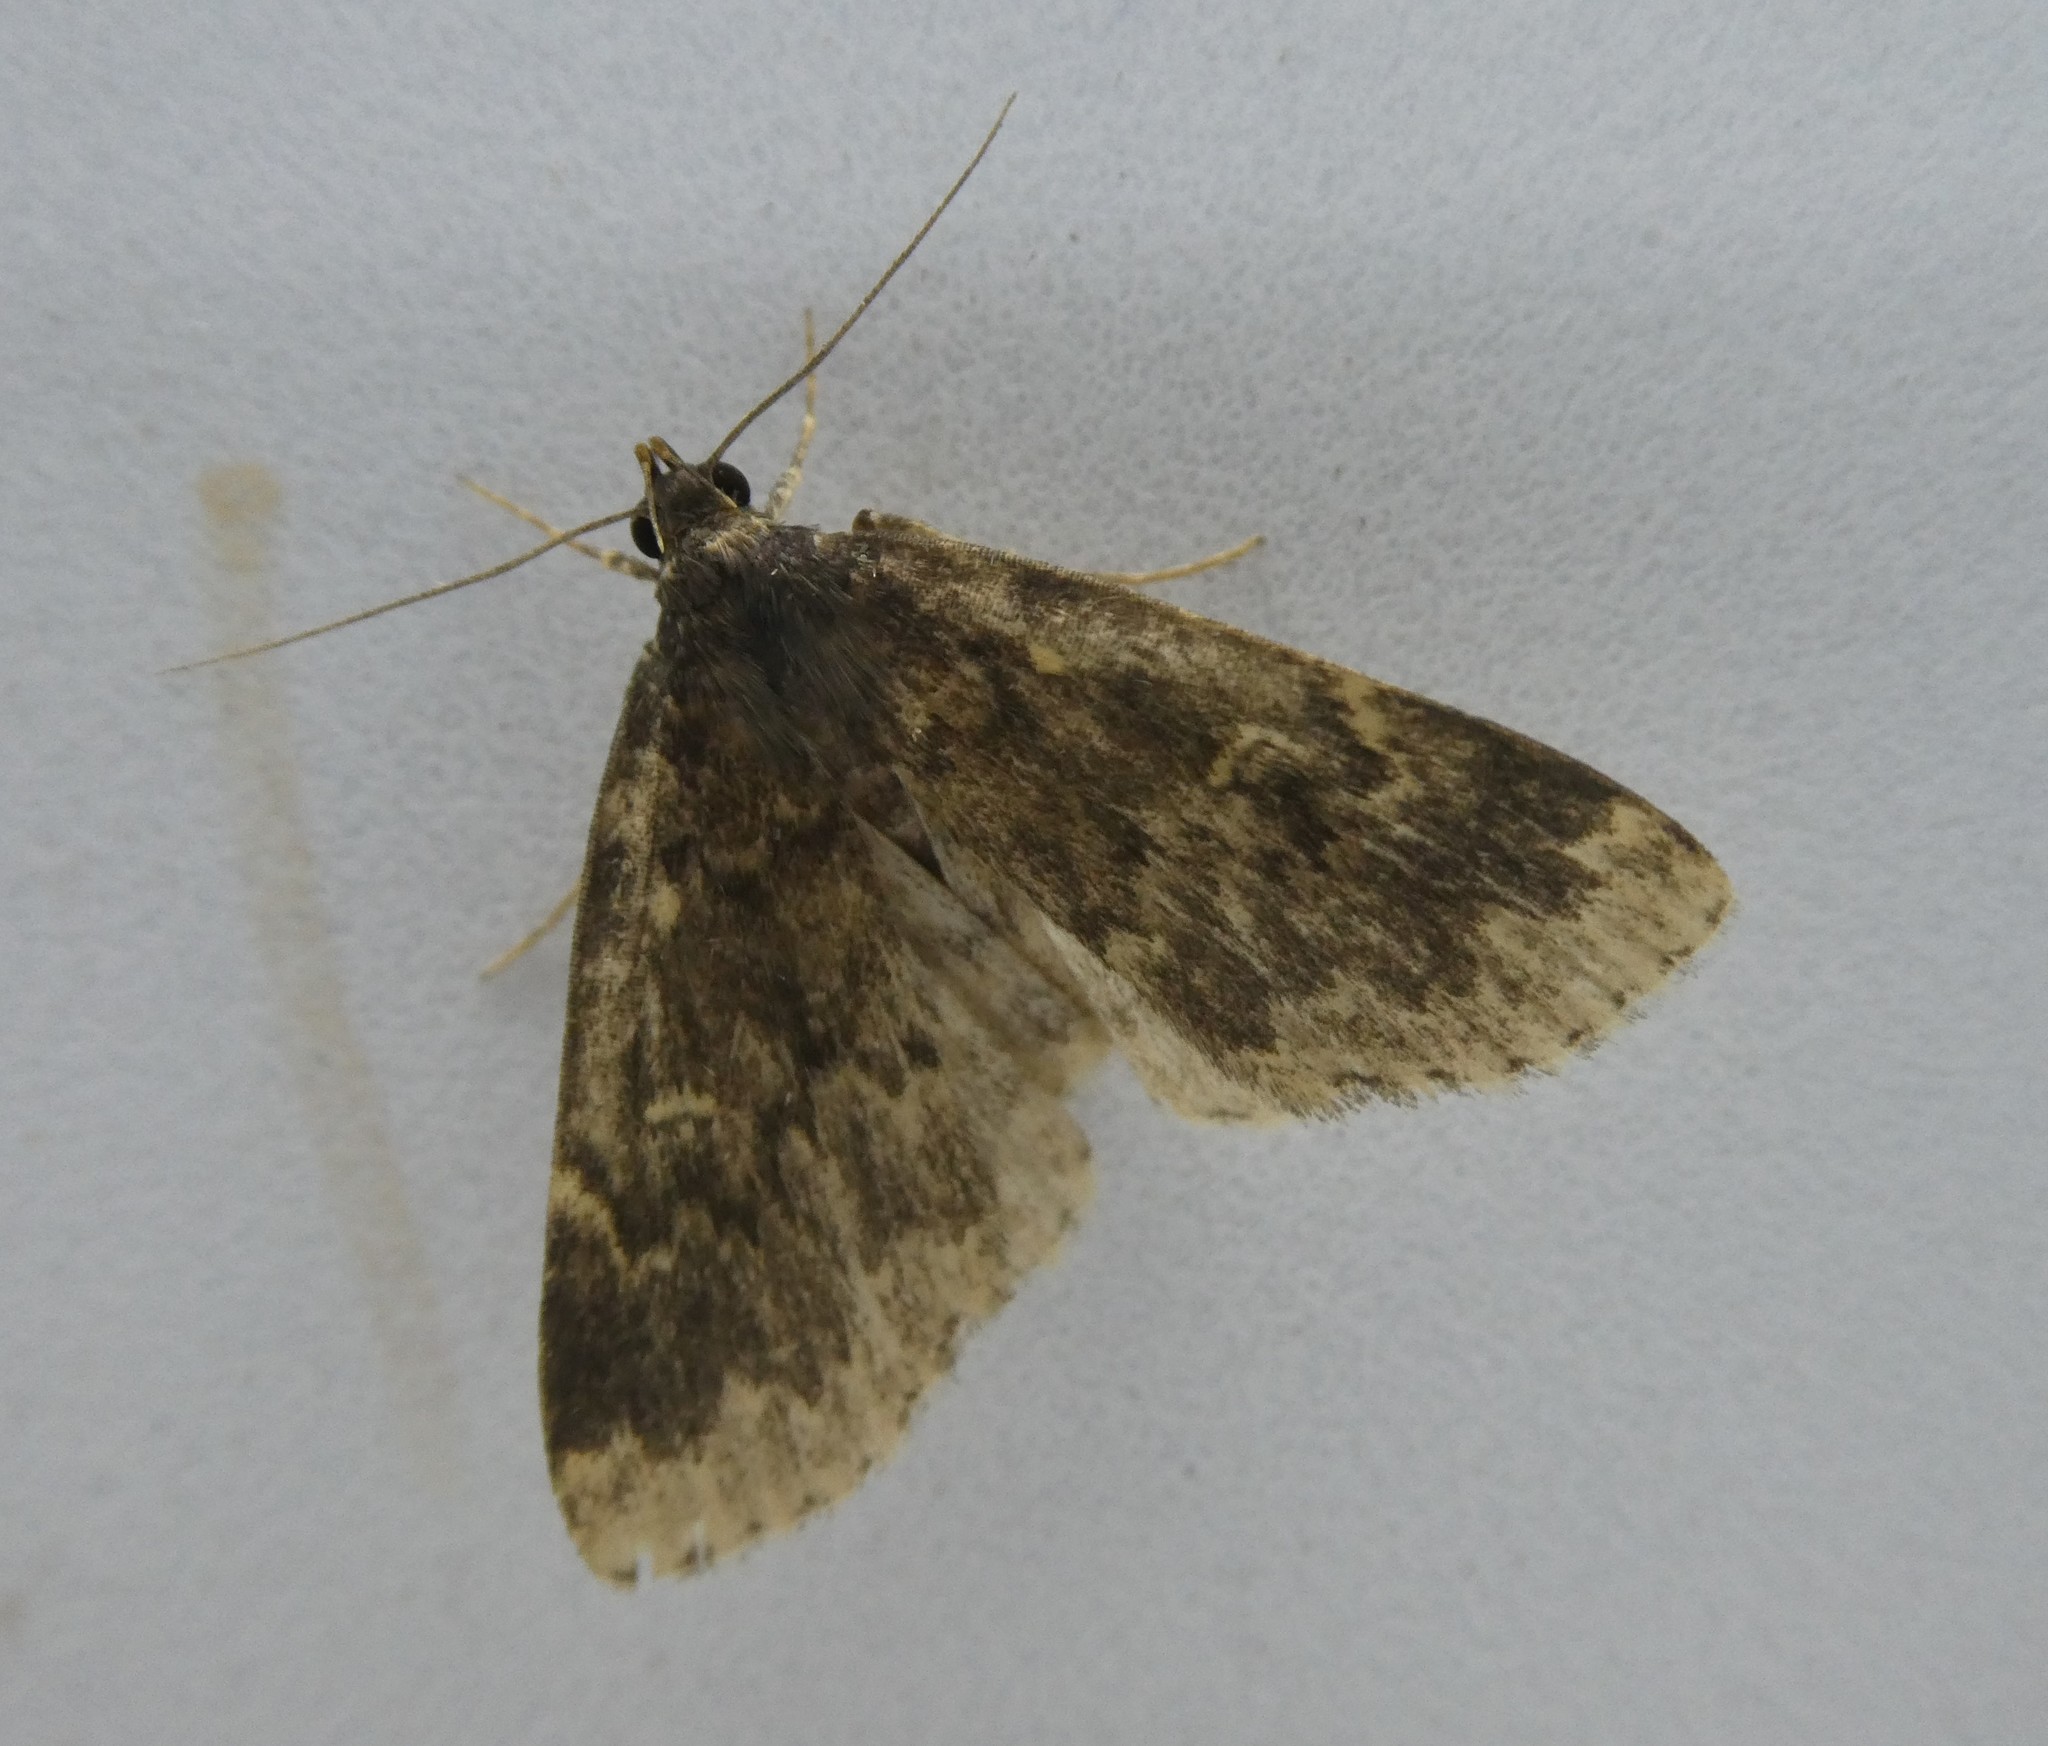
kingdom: Animalia
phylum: Arthropoda
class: Insecta
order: Lepidoptera
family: Erebidae
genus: Idia
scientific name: Idia lubricalis
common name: Twin-striped tabby
